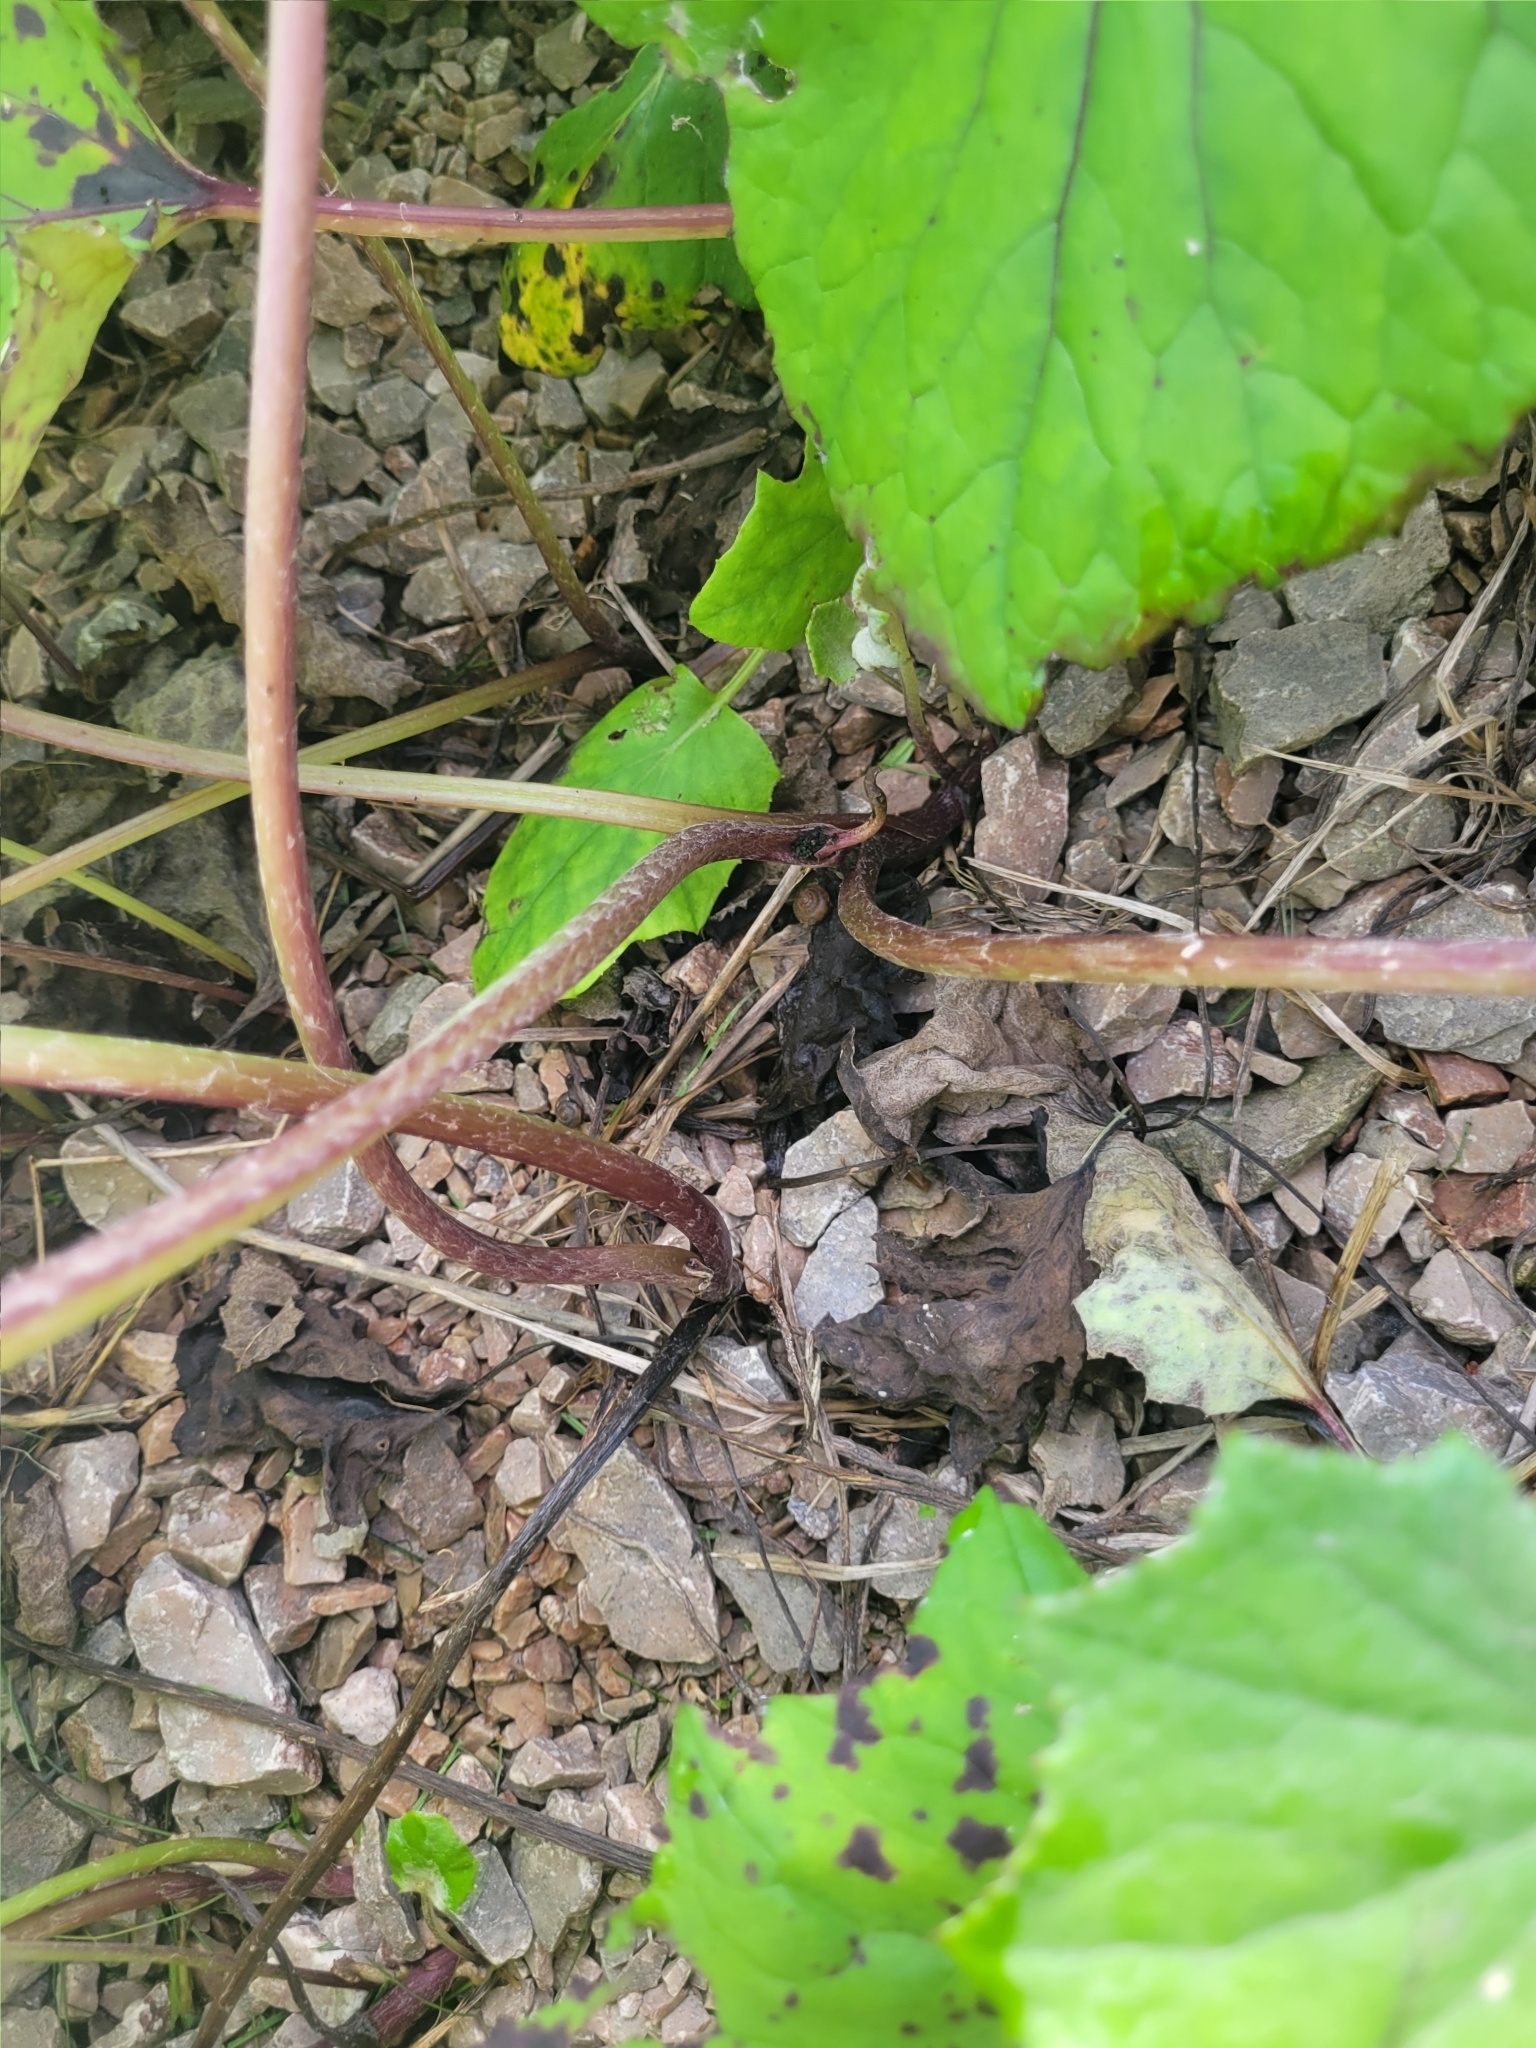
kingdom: Plantae
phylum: Tracheophyta
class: Magnoliopsida
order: Asterales
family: Asteraceae
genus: Tussilago
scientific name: Tussilago farfara
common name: Coltsfoot
